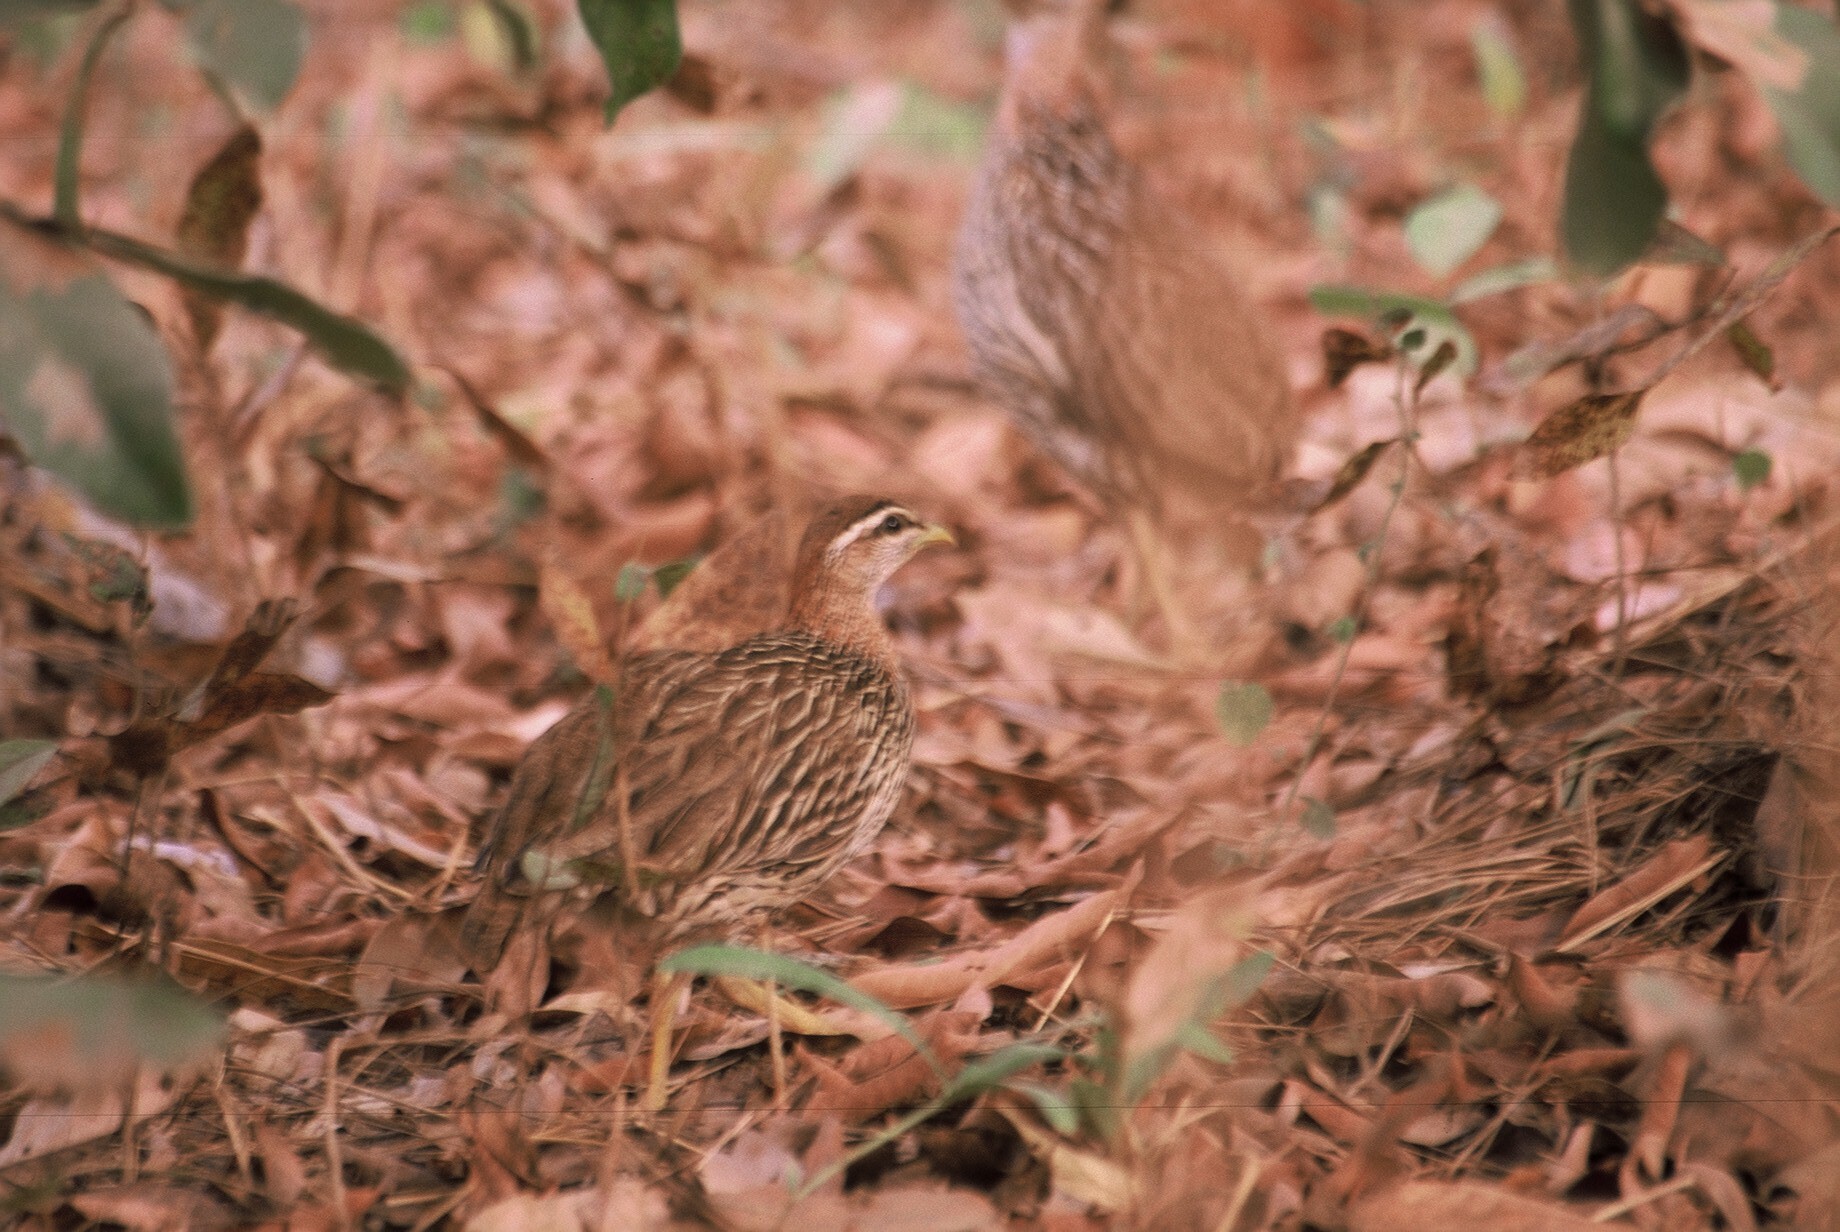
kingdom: Animalia
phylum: Chordata
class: Aves
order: Galliformes
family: Phasianidae
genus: Pternistis
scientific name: Pternistis bicalcaratus
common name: Double-spurred francolin
